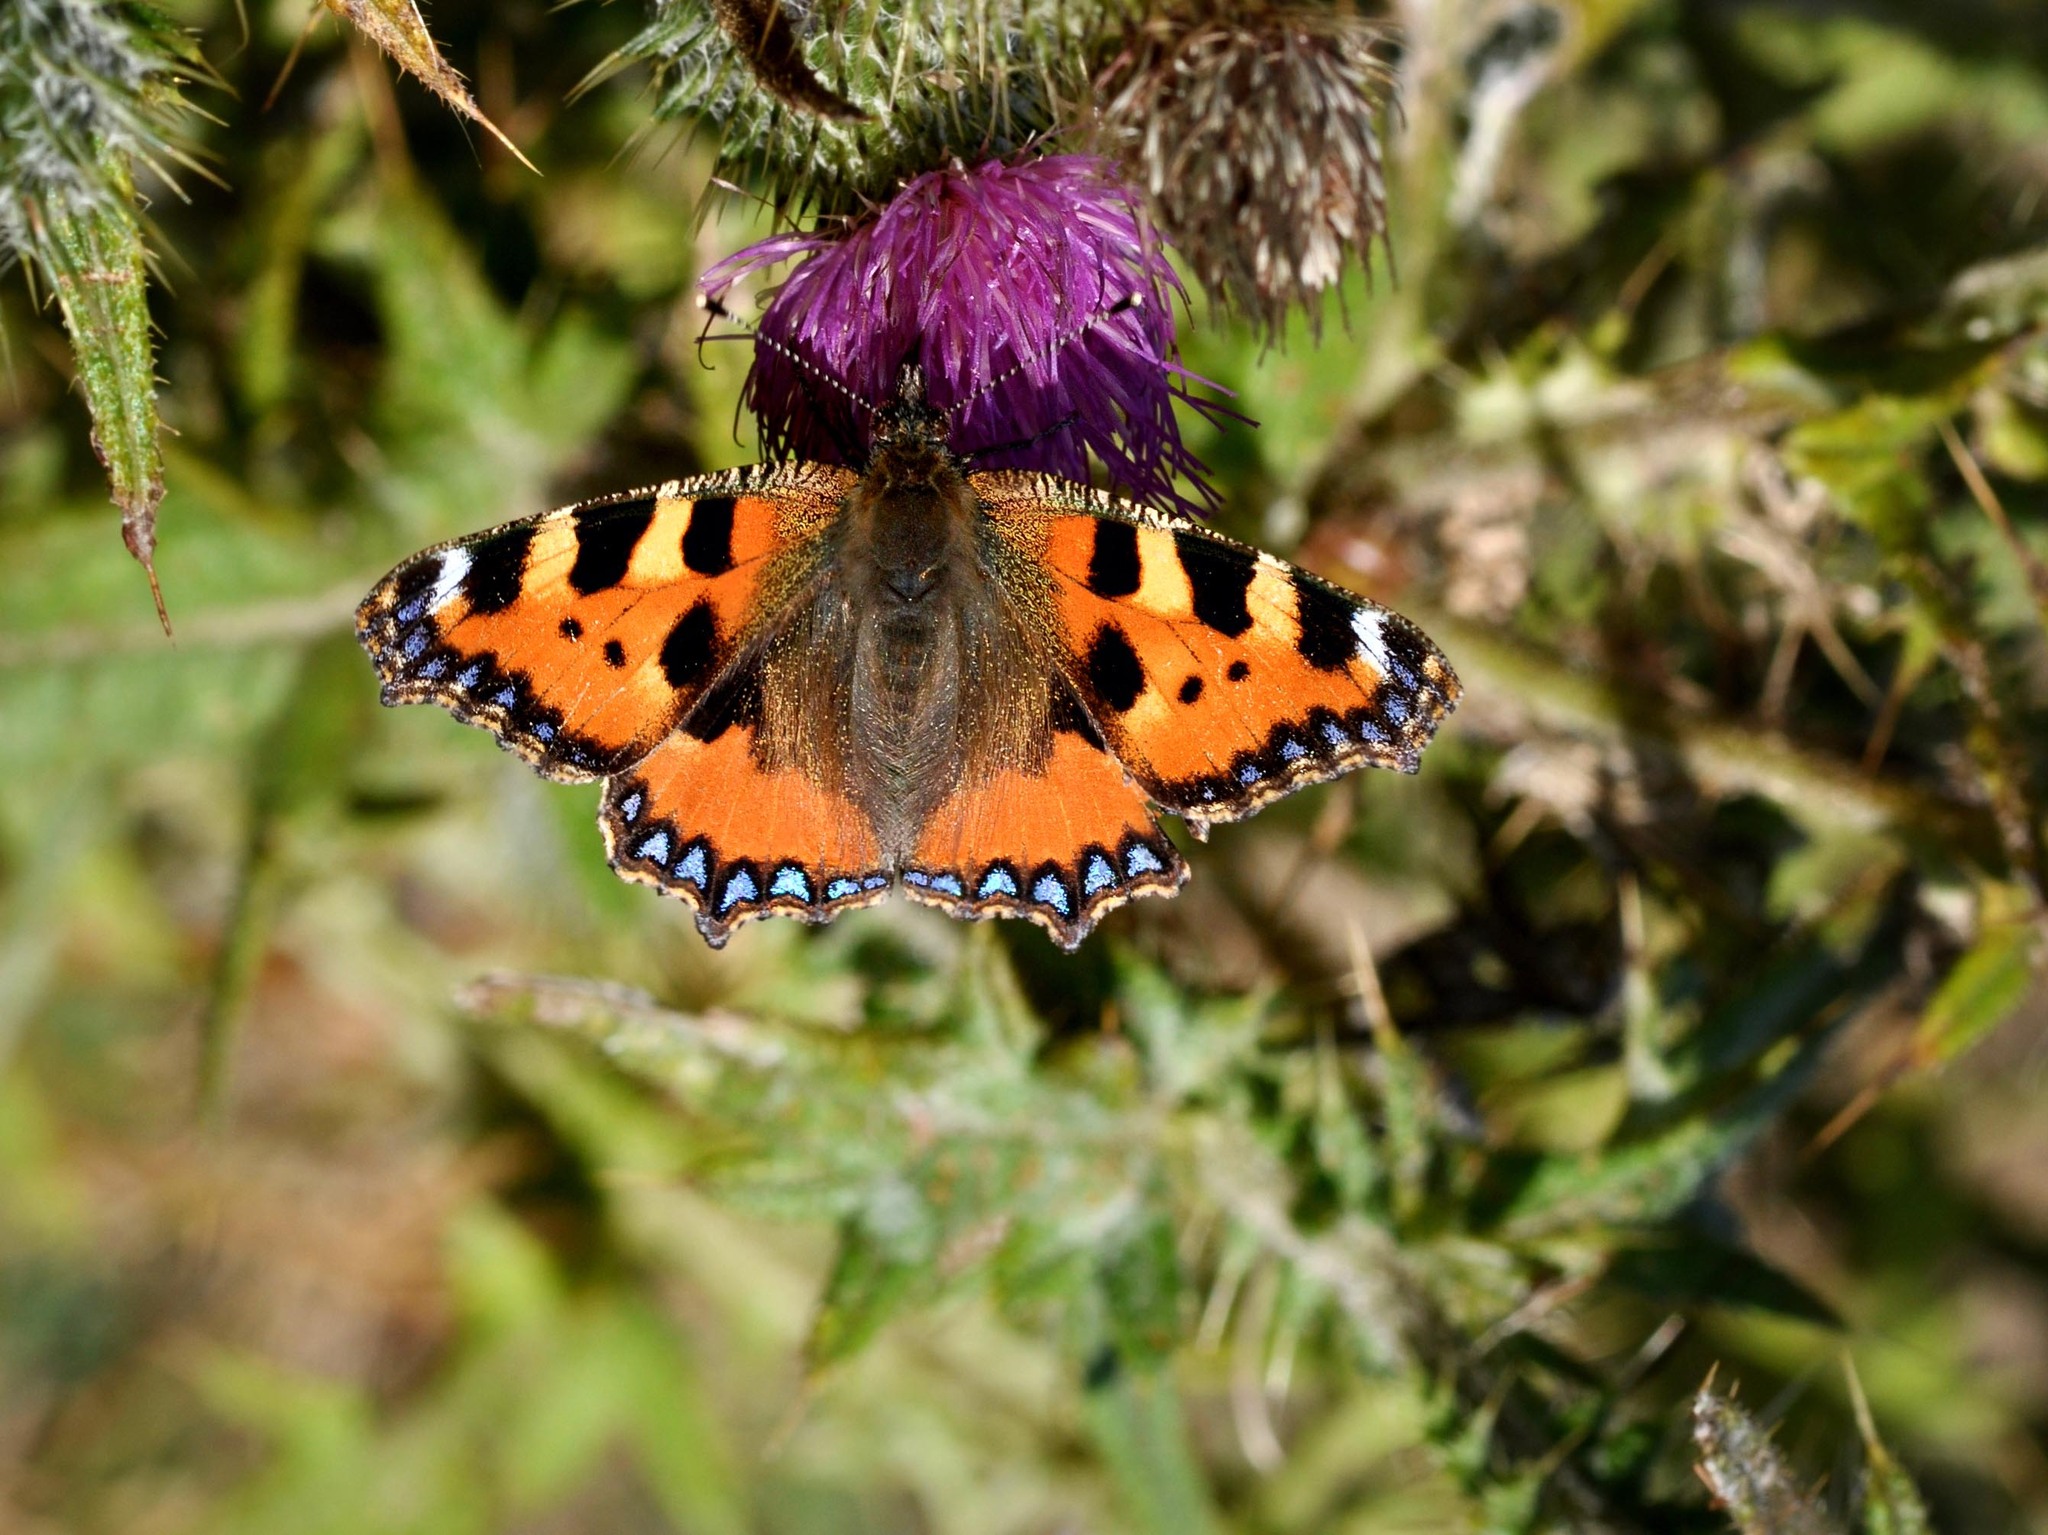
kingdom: Animalia
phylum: Arthropoda
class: Insecta
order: Lepidoptera
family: Nymphalidae
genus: Aglais
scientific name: Aglais urticae
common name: Small tortoiseshell
